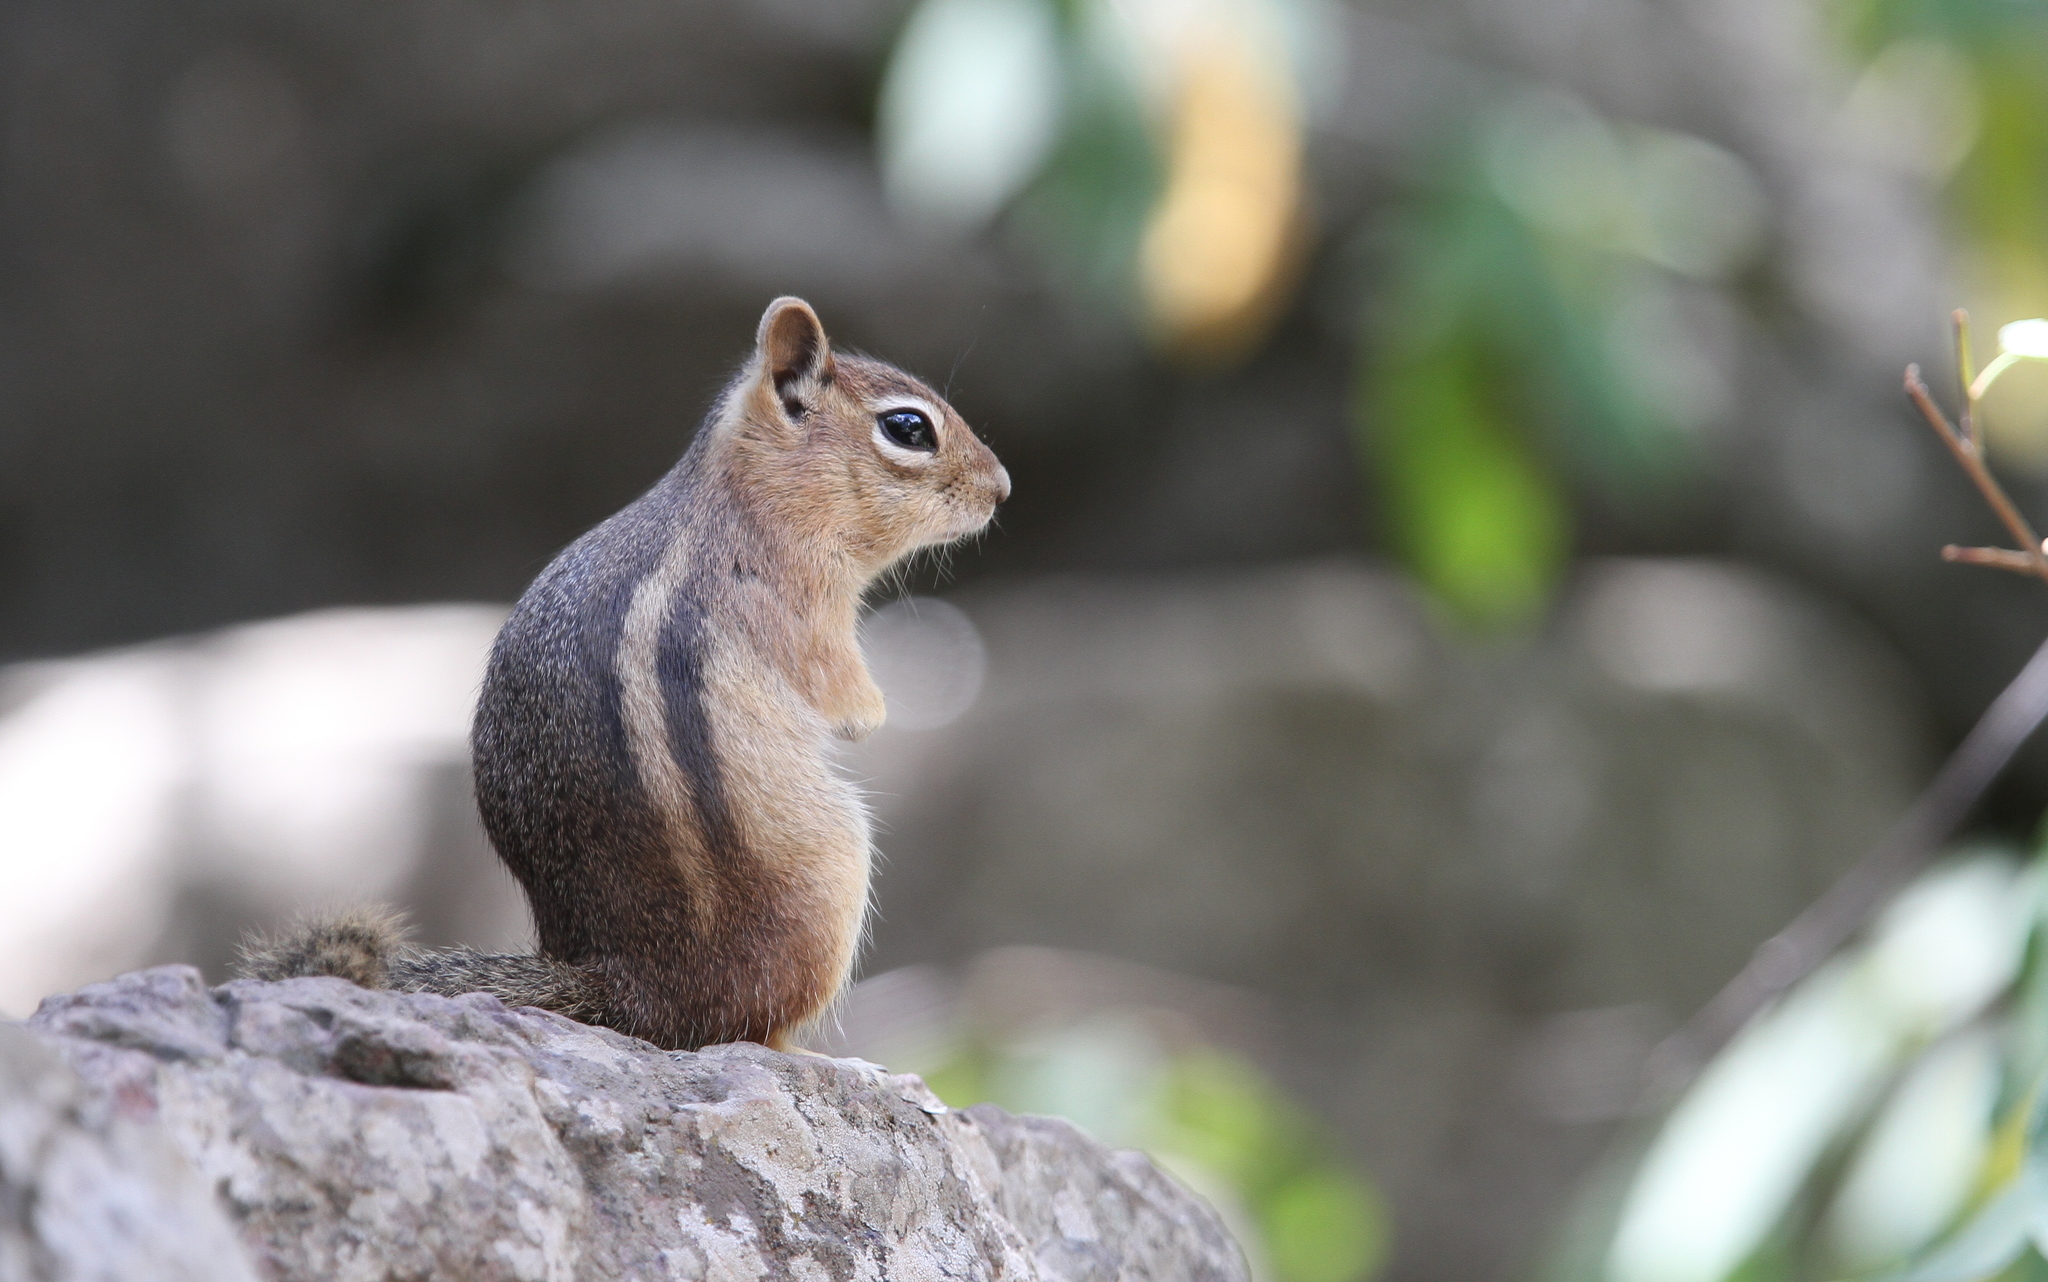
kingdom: Animalia
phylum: Chordata
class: Mammalia
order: Rodentia
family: Sciuridae
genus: Callospermophilus
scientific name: Callospermophilus lateralis
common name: Golden-mantled ground squirrel
